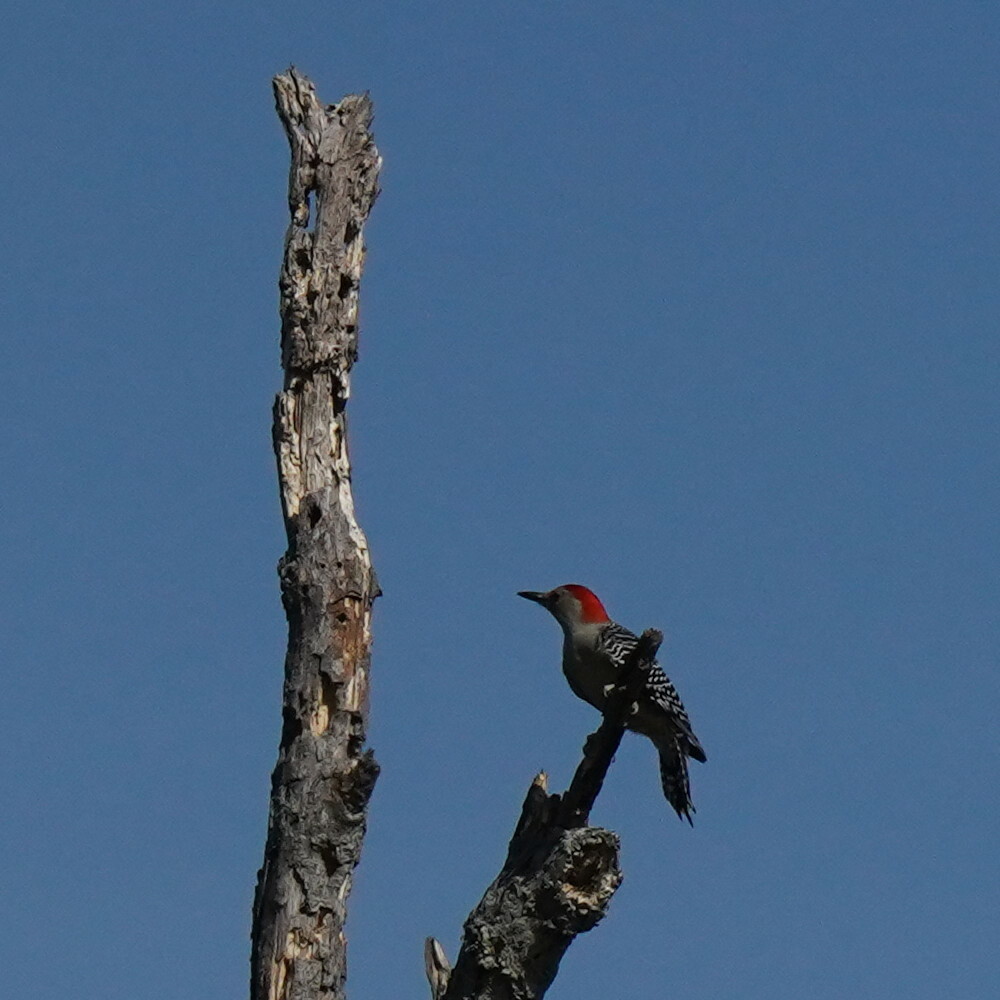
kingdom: Animalia
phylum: Chordata
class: Aves
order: Piciformes
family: Picidae
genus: Melanerpes
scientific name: Melanerpes carolinus
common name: Red-bellied woodpecker
